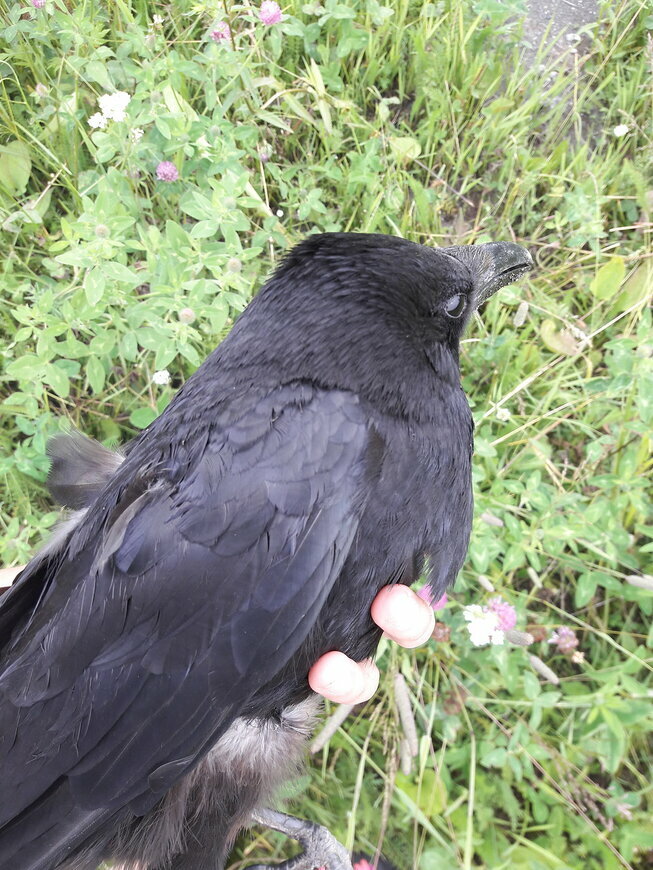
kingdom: Animalia
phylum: Chordata
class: Aves
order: Passeriformes
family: Corvidae
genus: Corvus
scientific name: Corvus corone
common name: Carrion crow
